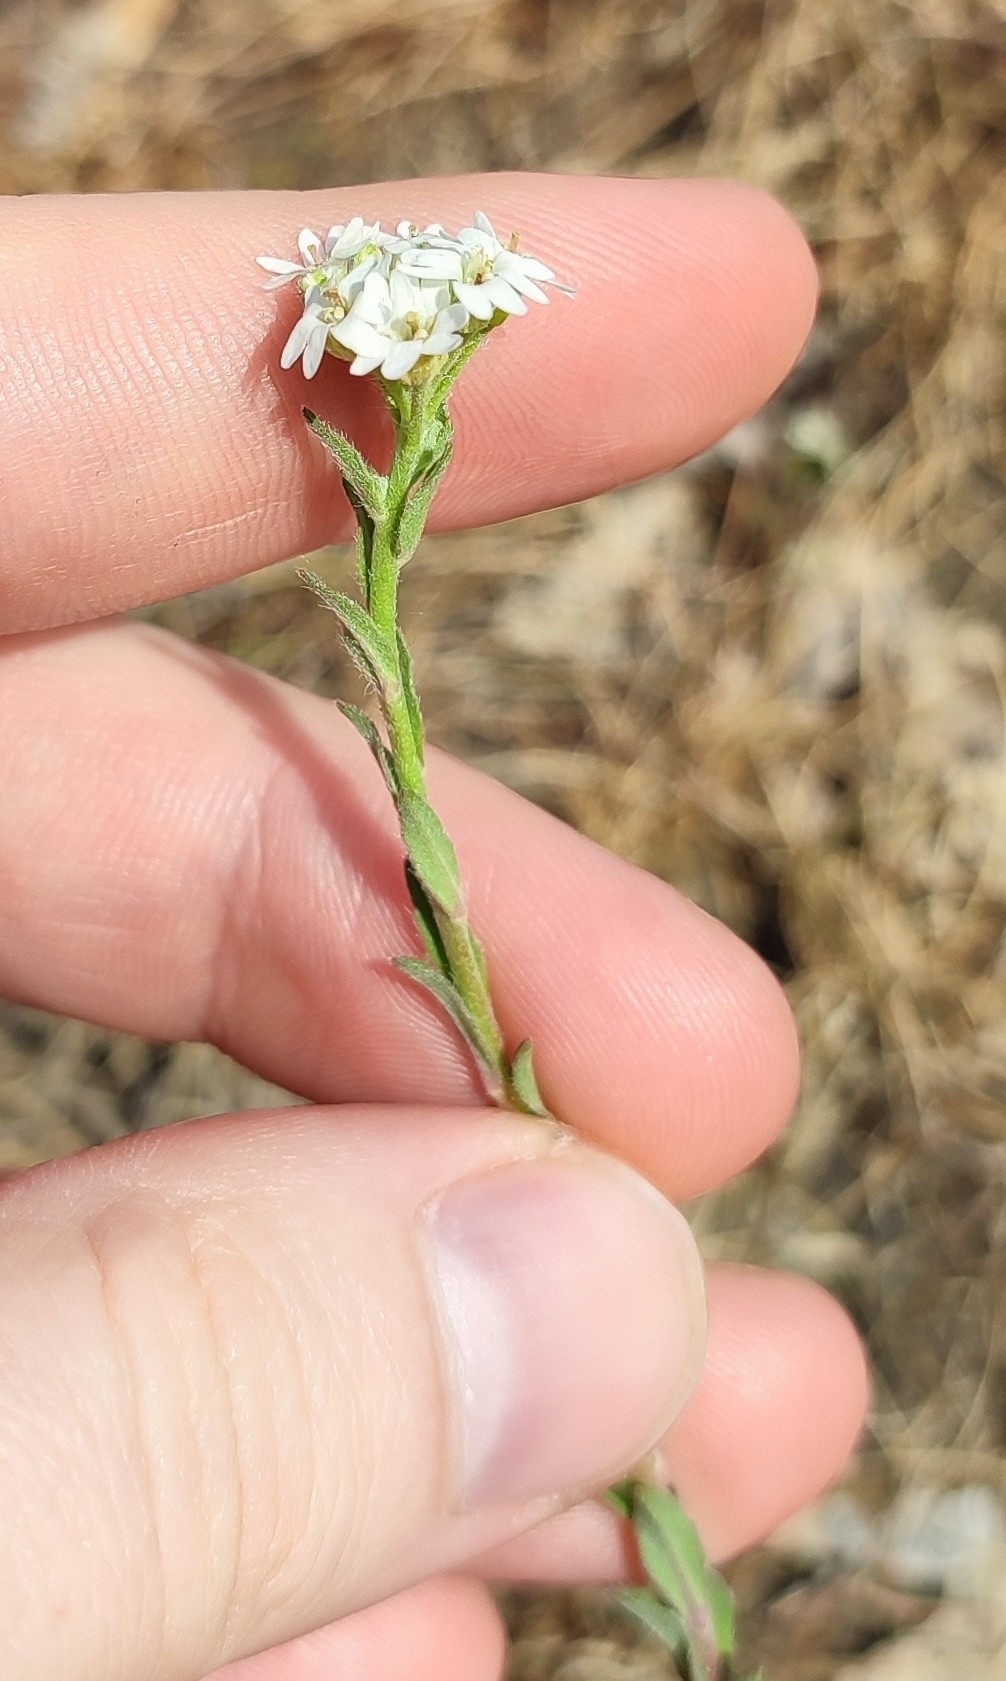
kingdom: Plantae
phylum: Tracheophyta
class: Magnoliopsida
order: Brassicales
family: Brassicaceae
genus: Berteroa
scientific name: Berteroa incana
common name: Hoary alison
